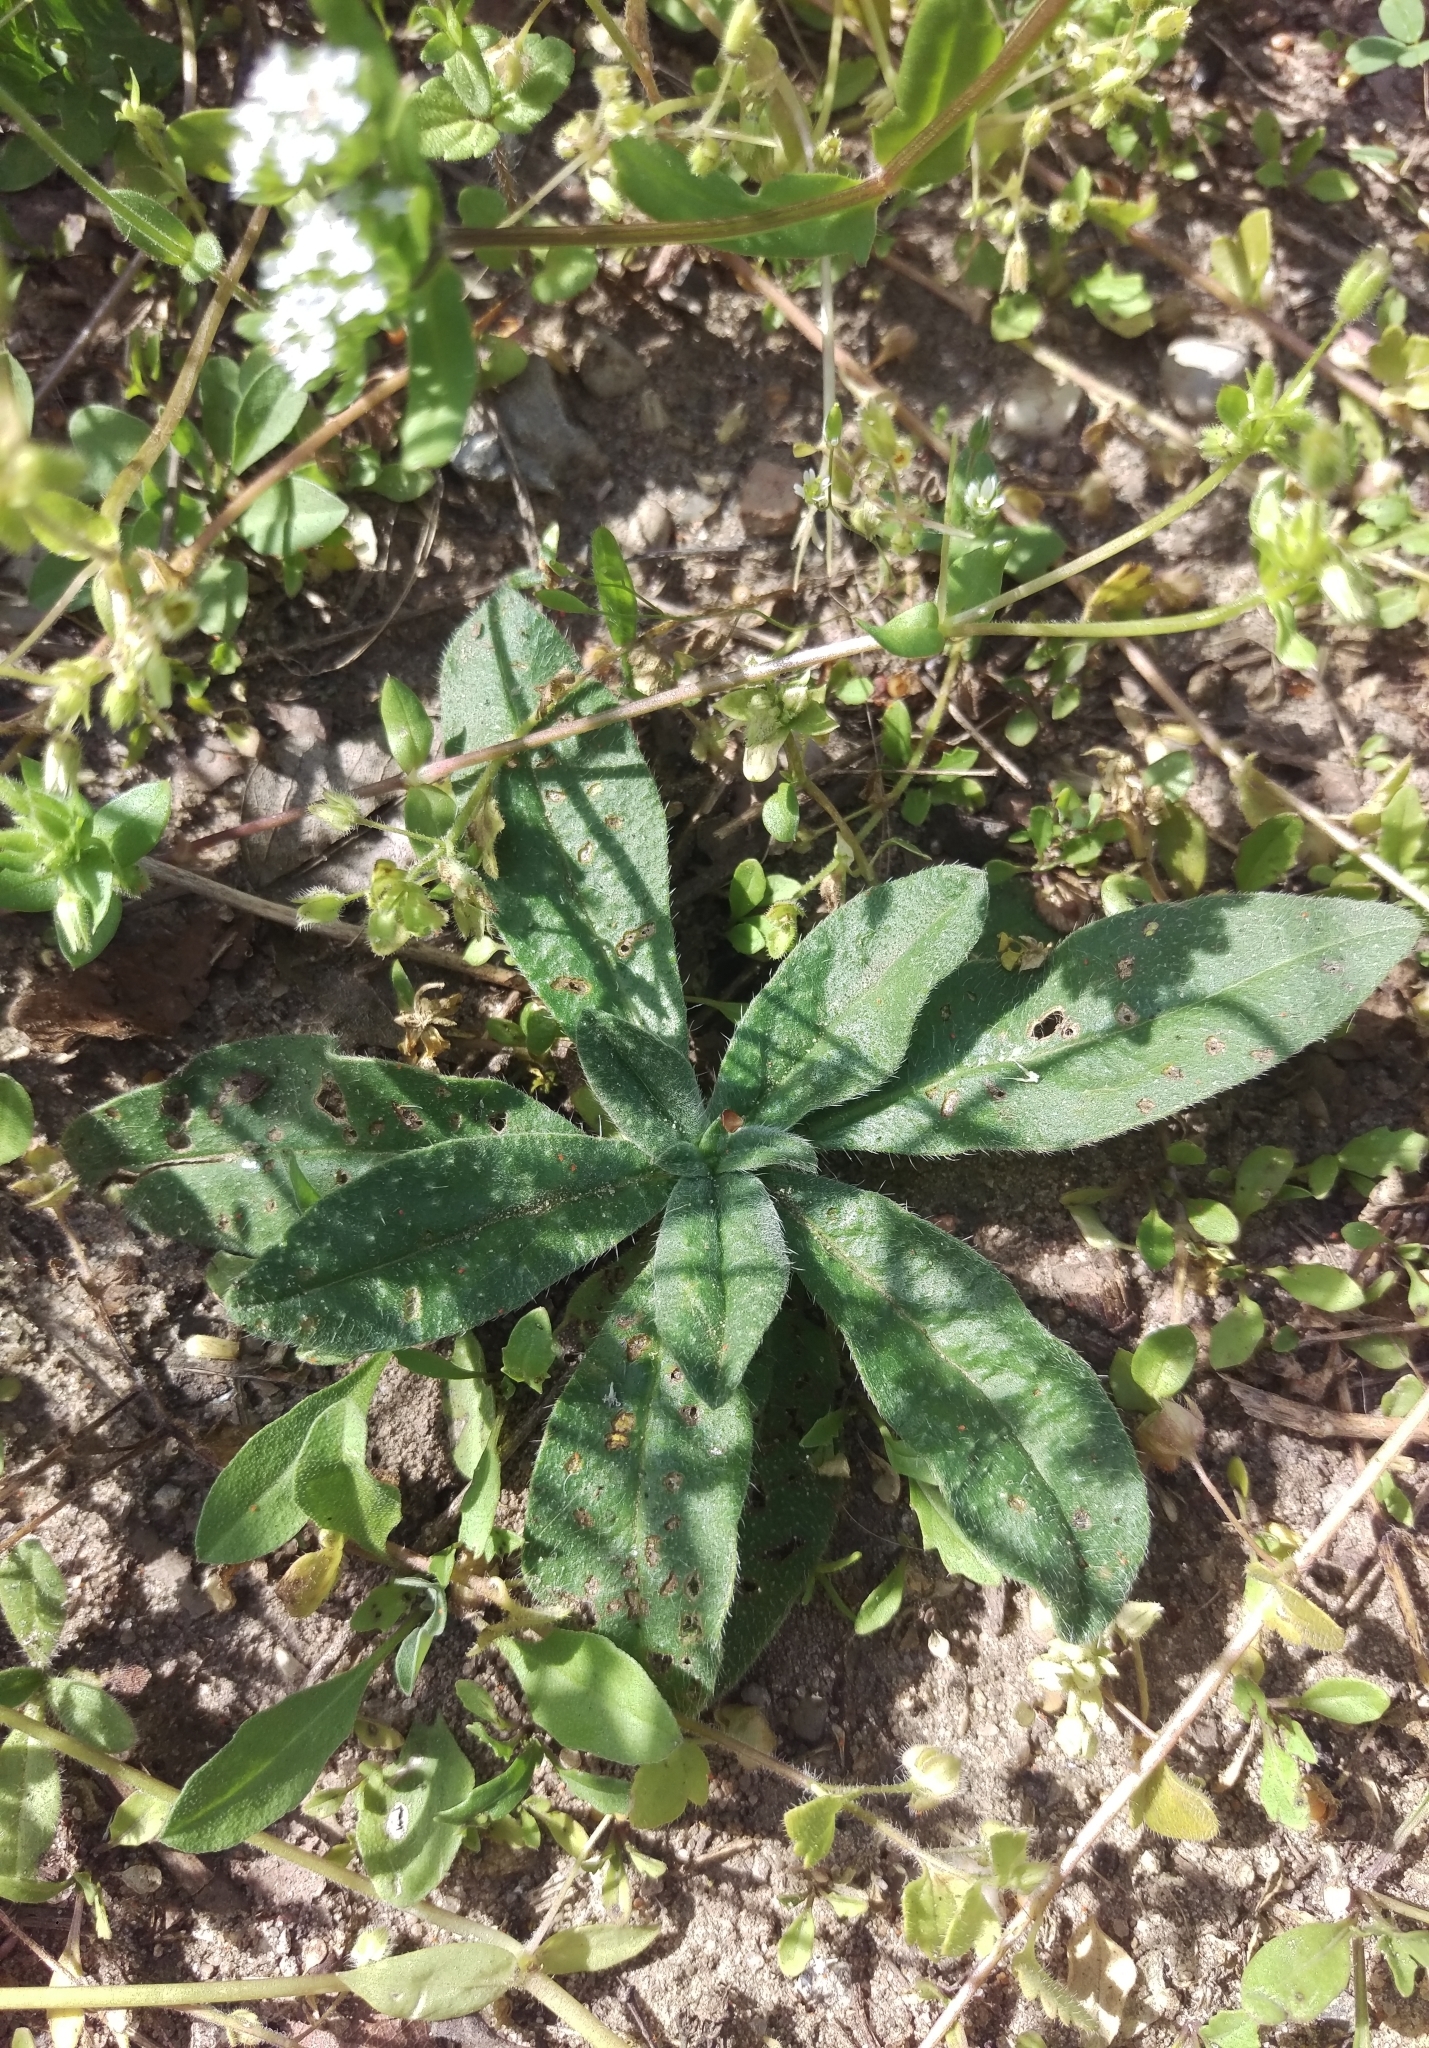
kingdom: Plantae
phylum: Tracheophyta
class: Magnoliopsida
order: Boraginales
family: Boraginaceae
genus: Echium
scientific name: Echium vulgare
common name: Common viper's bugloss
